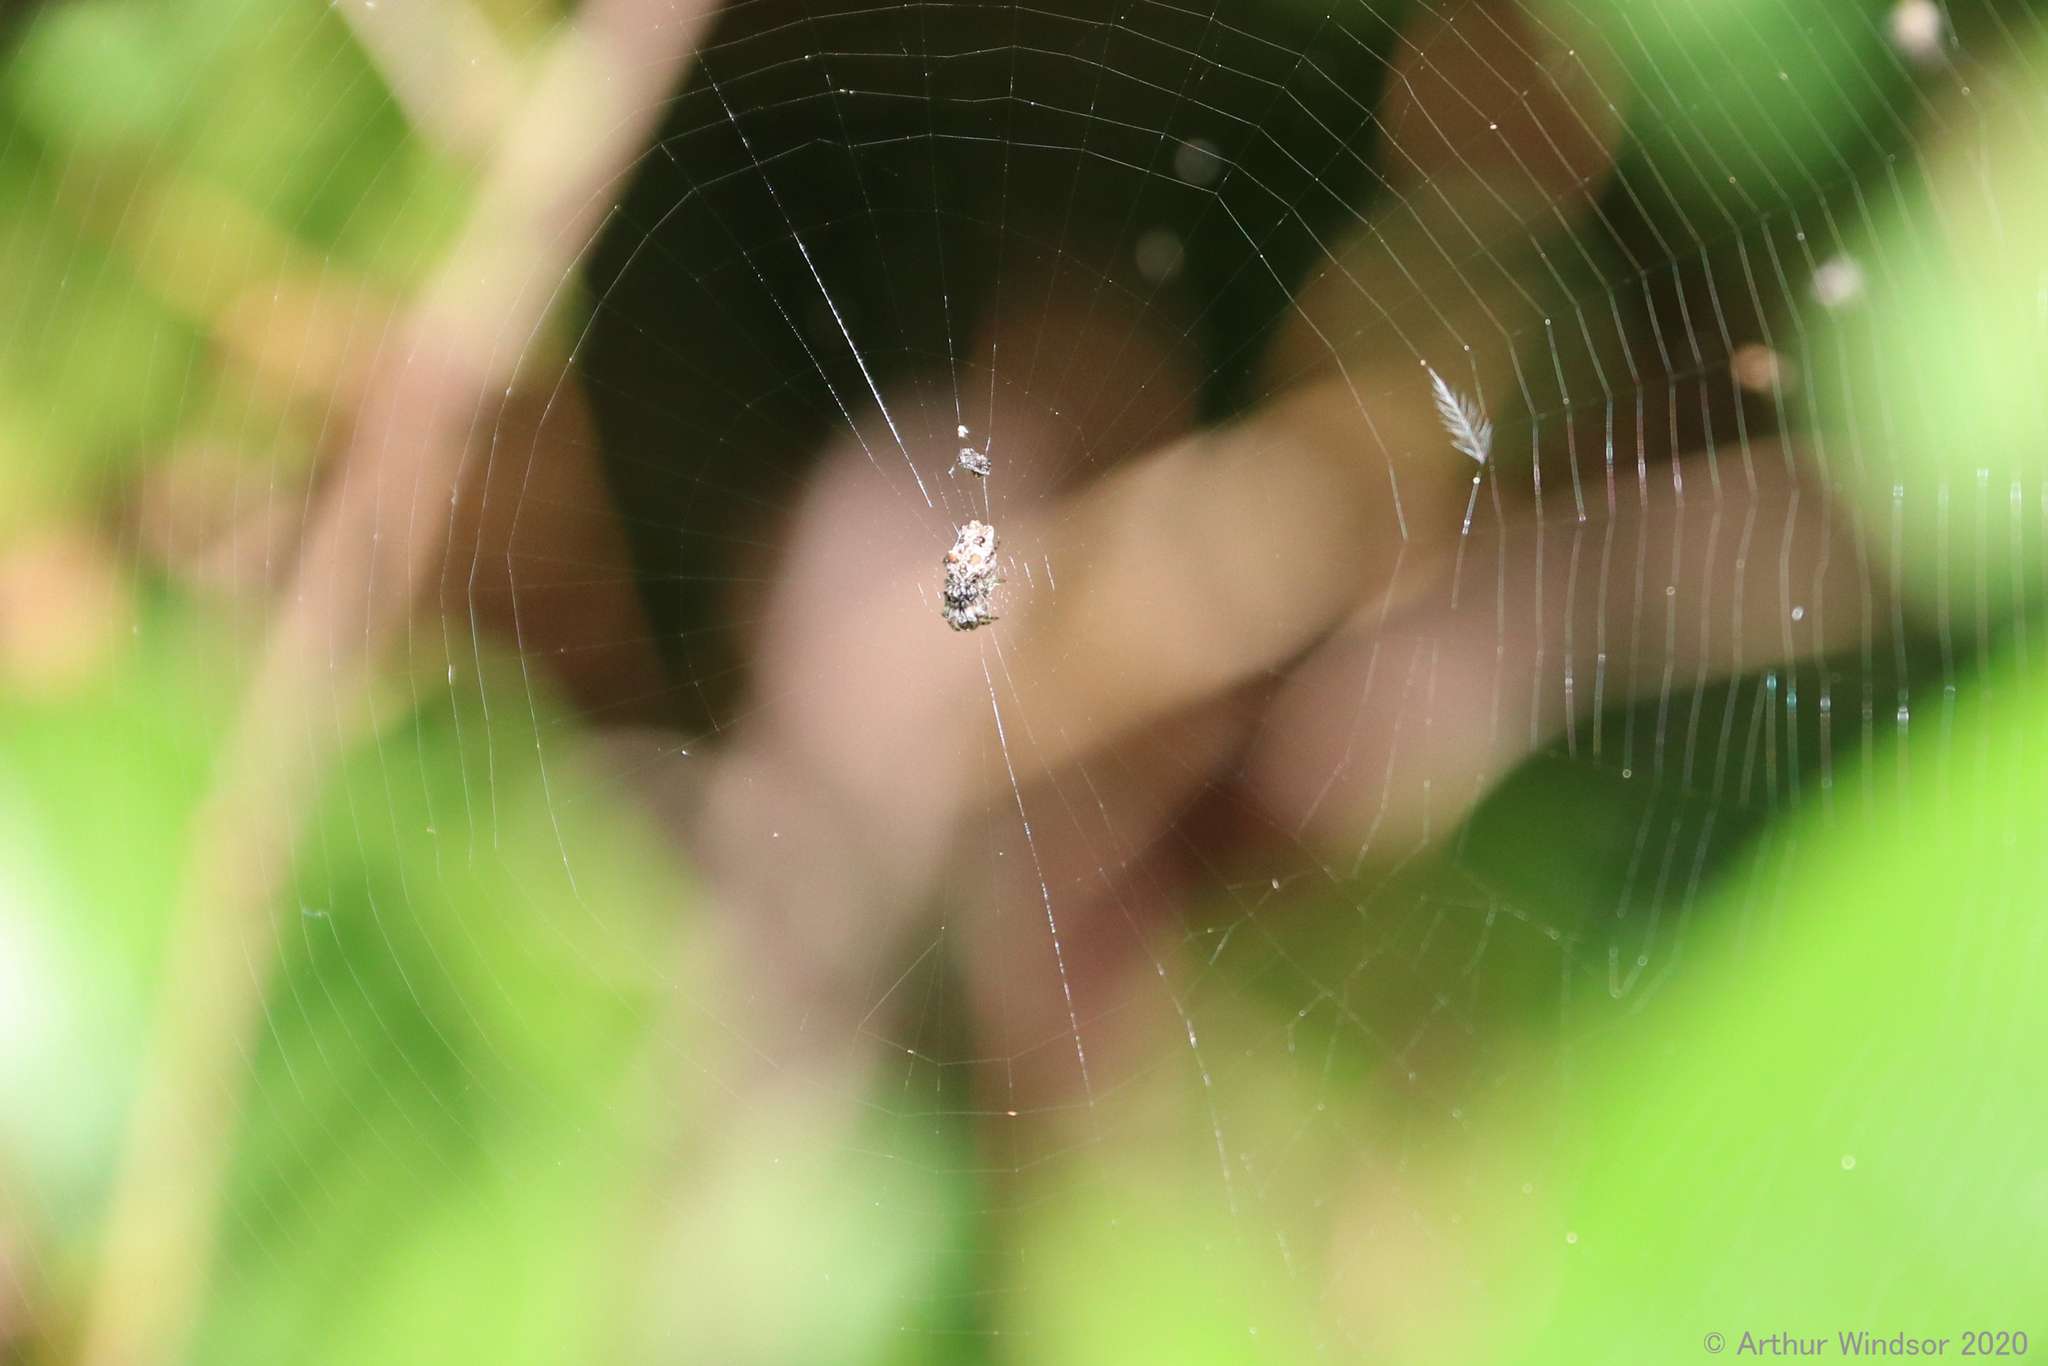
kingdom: Animalia
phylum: Arthropoda
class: Arachnida
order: Araneae
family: Araneidae
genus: Cyclosa
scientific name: Cyclosa walckenaeri
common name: Orb weavers
